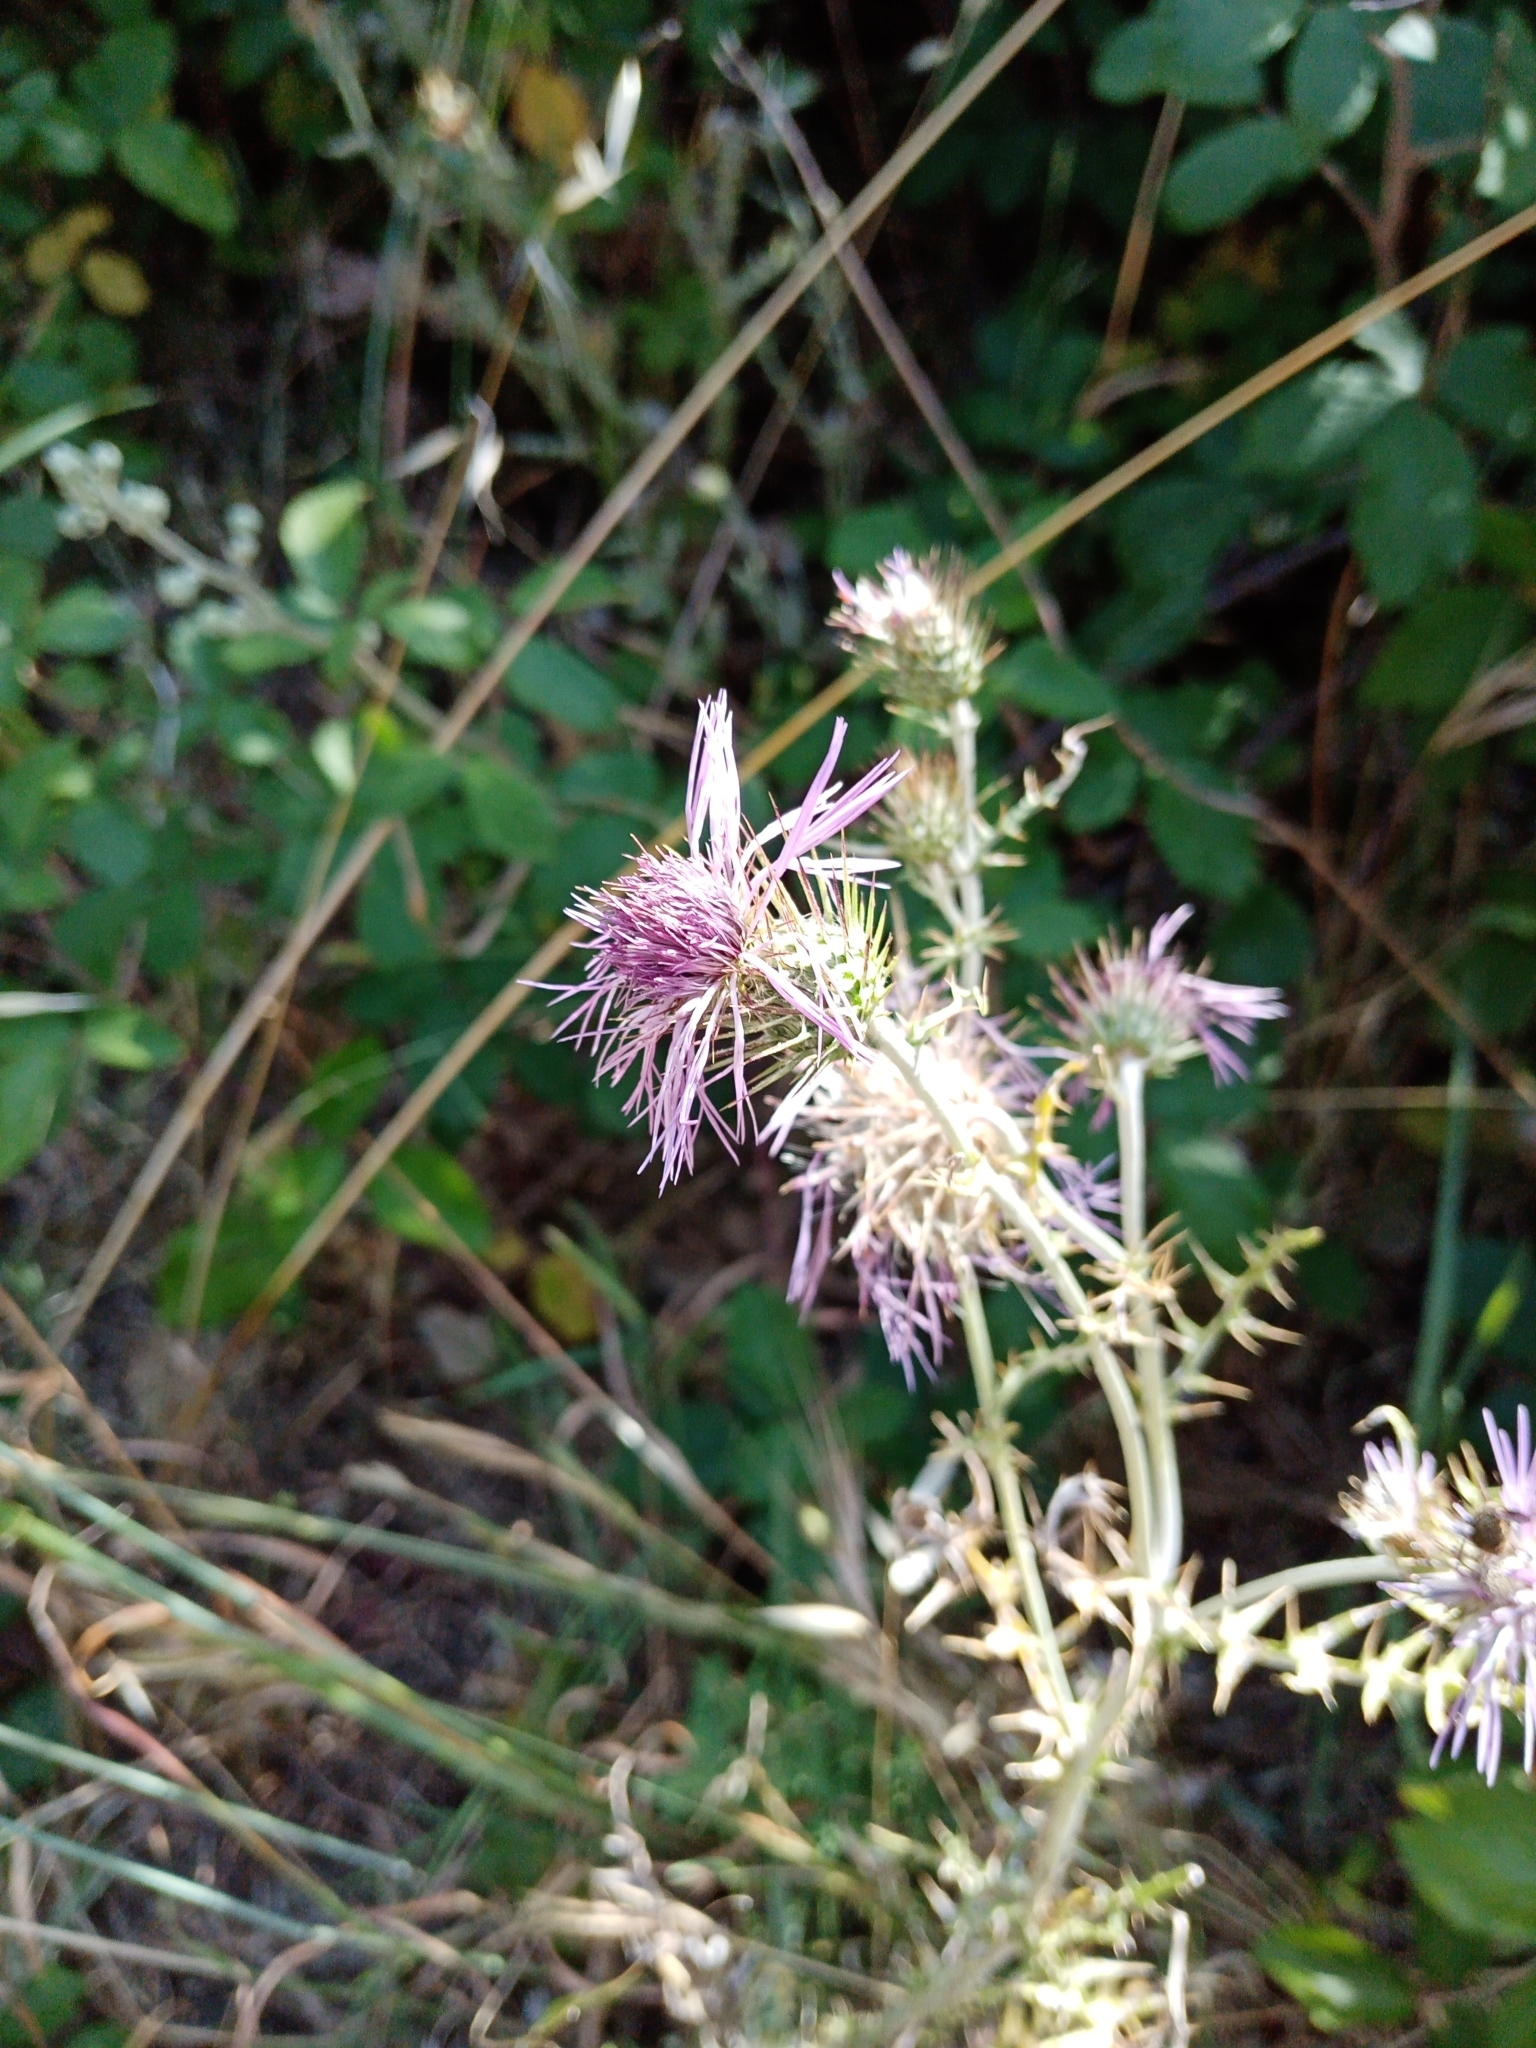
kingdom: Plantae
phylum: Tracheophyta
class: Magnoliopsida
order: Asterales
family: Asteraceae
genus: Galactites
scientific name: Galactites tomentosa
